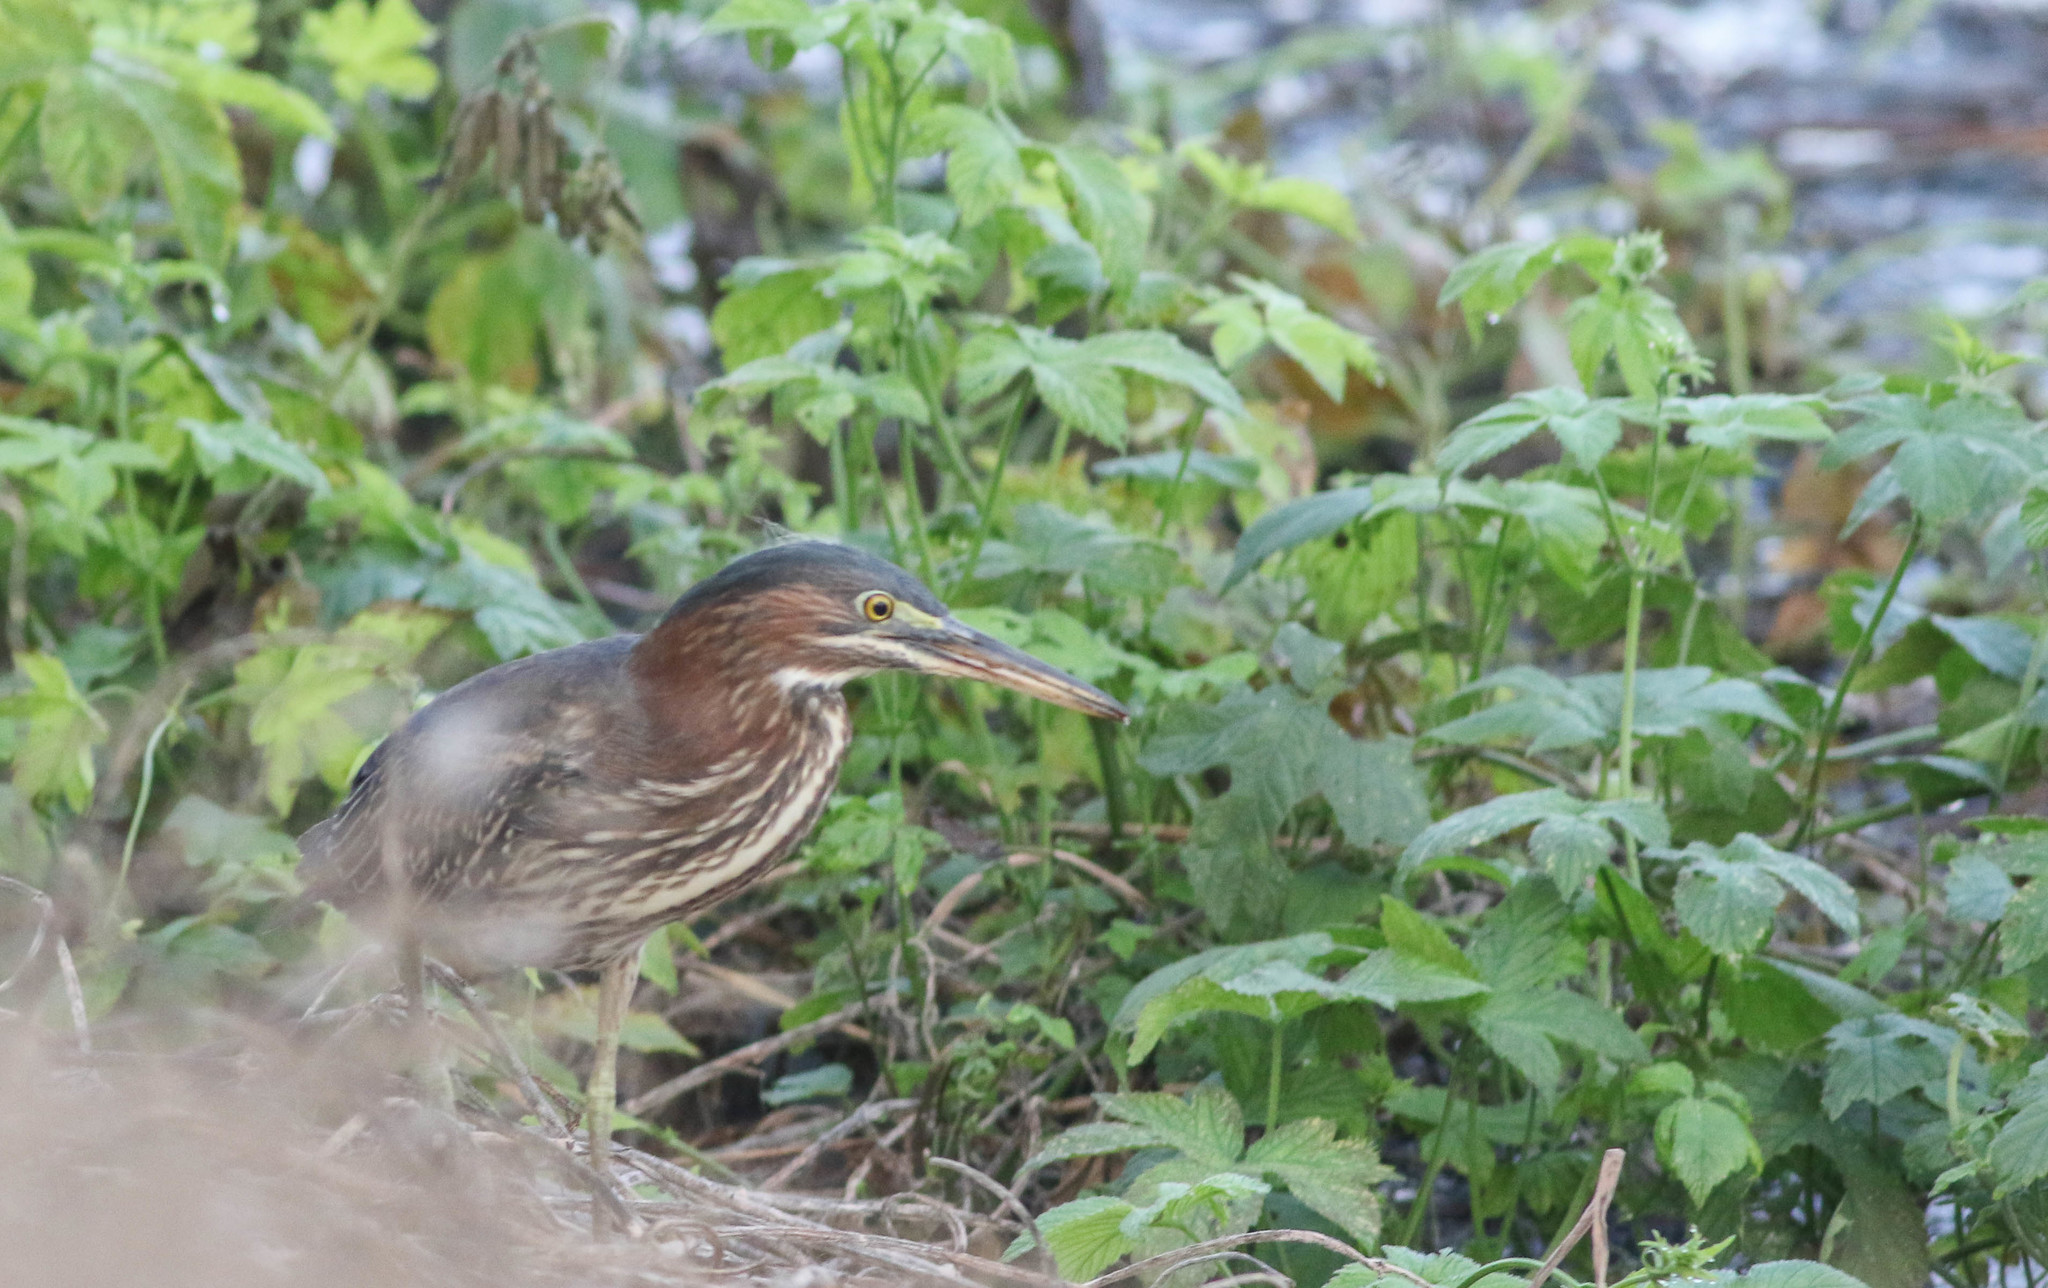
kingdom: Animalia
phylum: Chordata
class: Aves
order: Pelecaniformes
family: Ardeidae
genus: Butorides
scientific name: Butorides virescens
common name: Green heron
